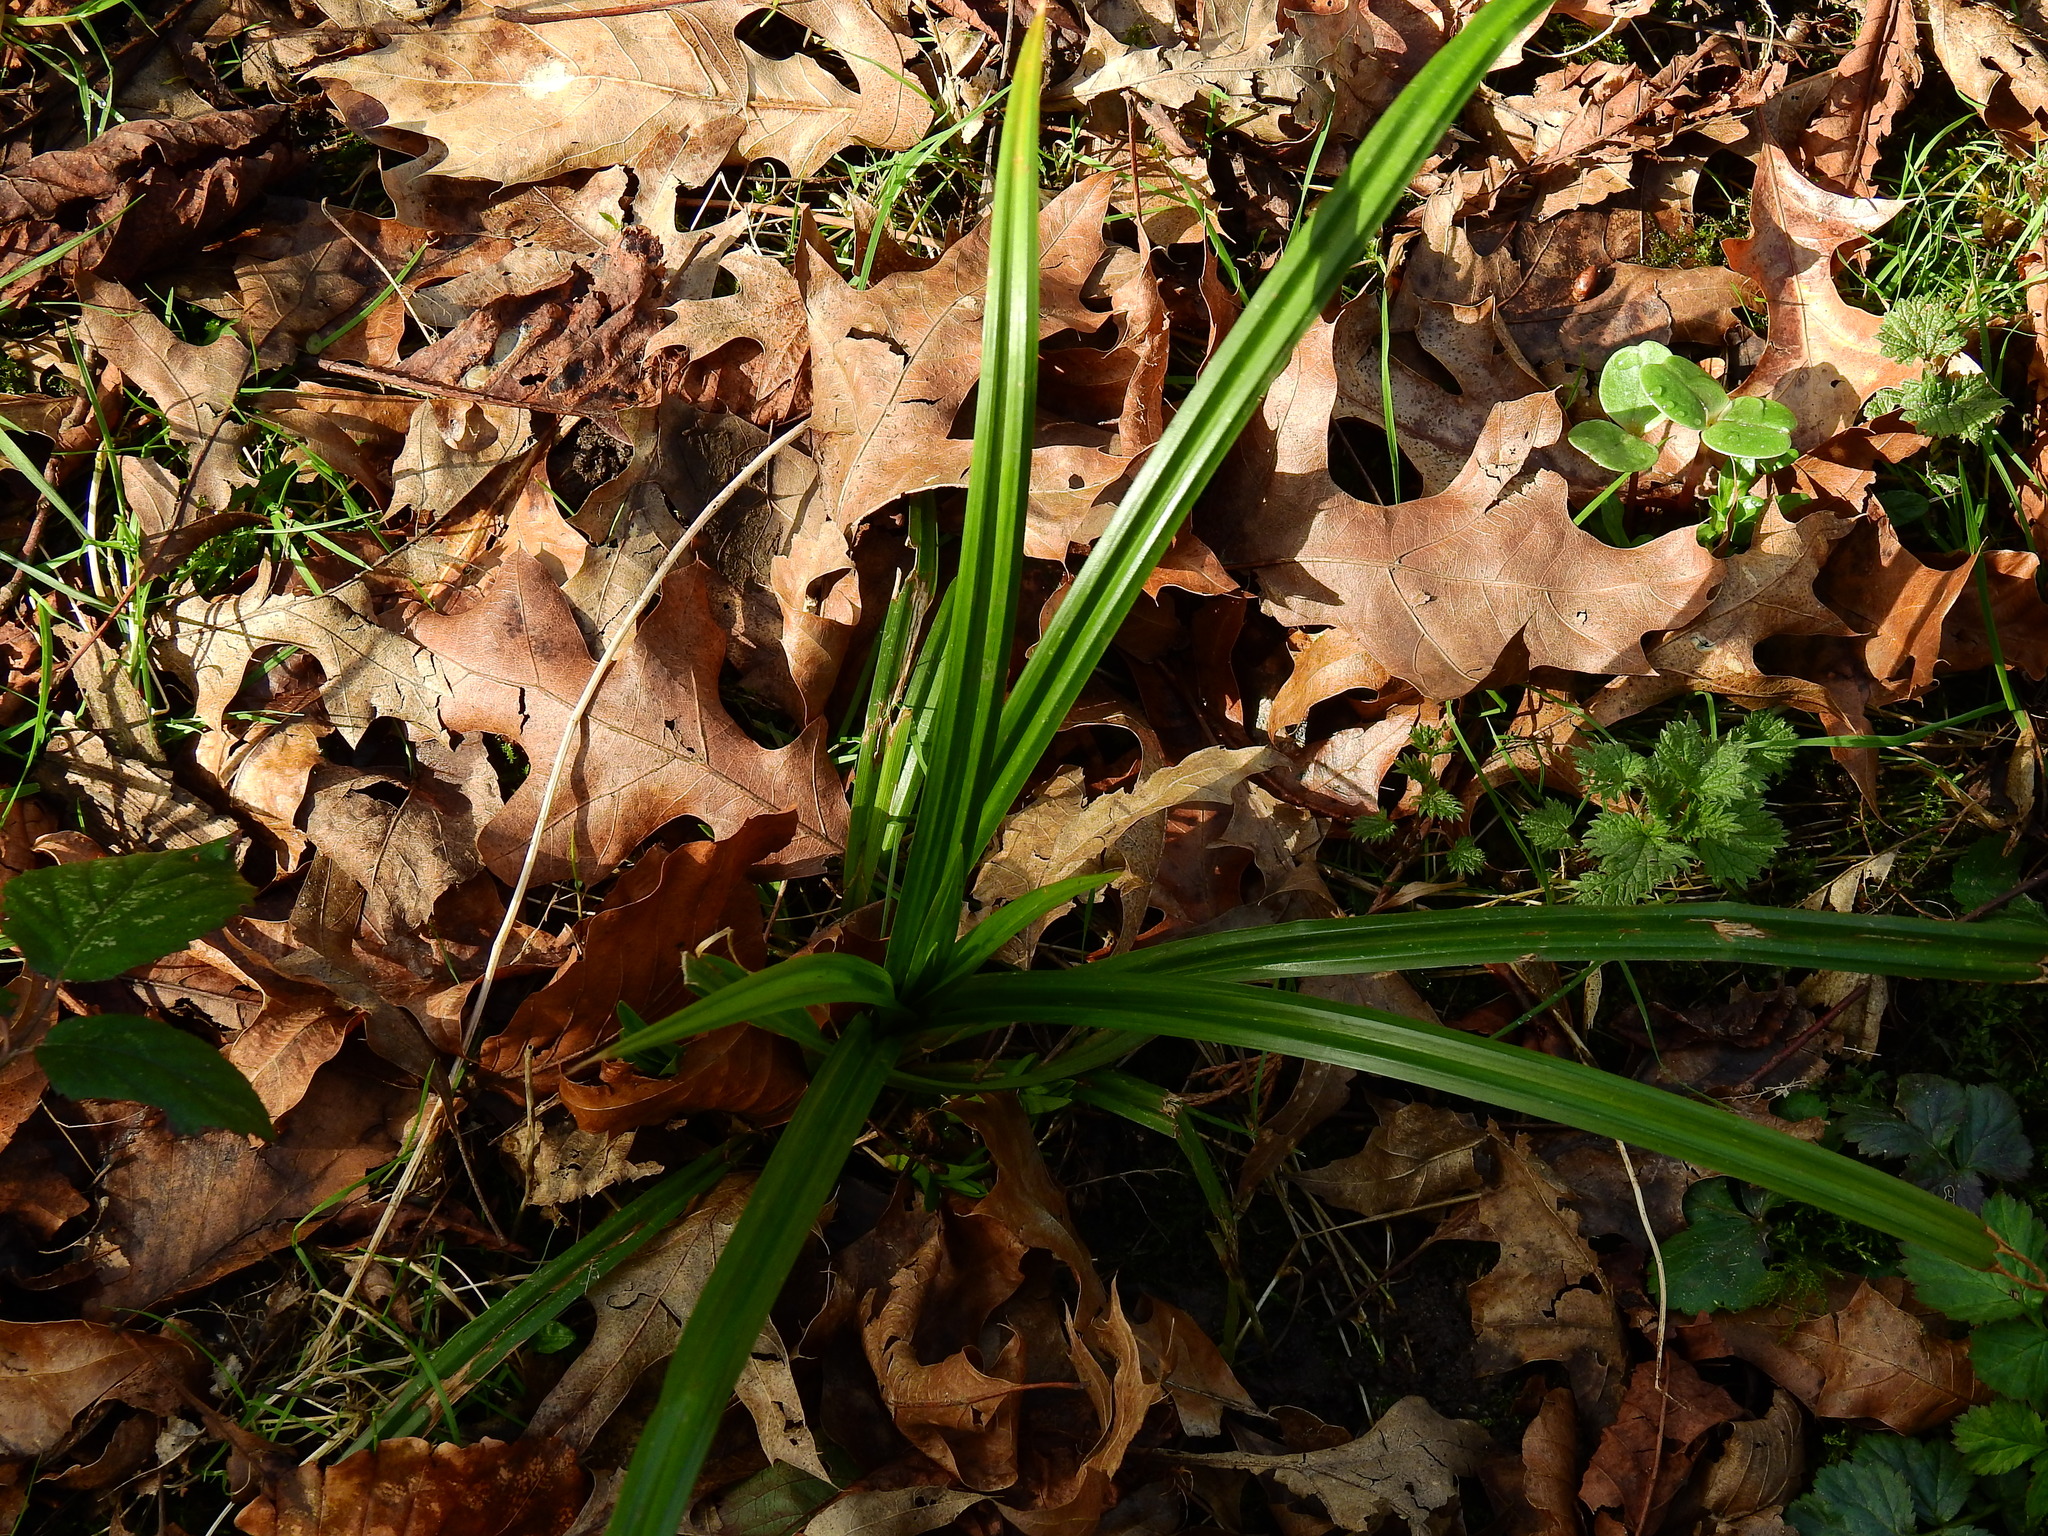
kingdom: Plantae
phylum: Tracheophyta
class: Liliopsida
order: Poales
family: Cyperaceae
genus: Carex
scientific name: Carex pendula
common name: Pendulous sedge
